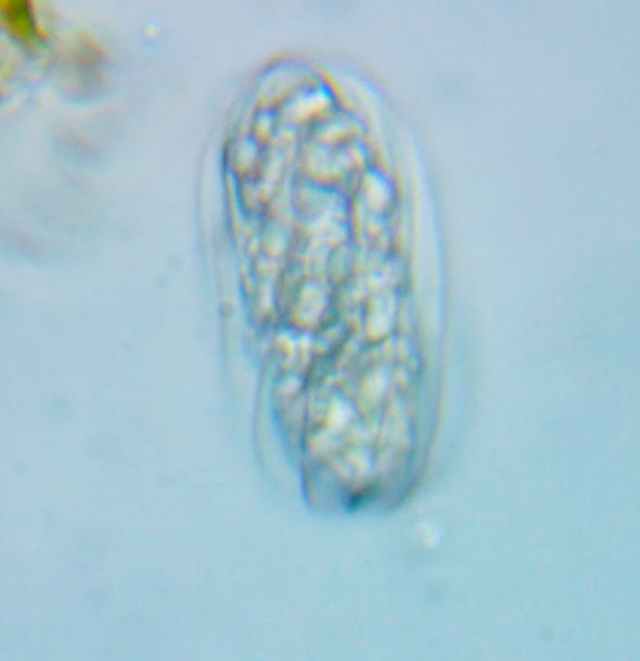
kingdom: Protozoa
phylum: Euglenozoa
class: Euglenoidea
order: Petalomonadida
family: Scytomonadidae
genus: Calycimonas
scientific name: Calycimonas physaloides
